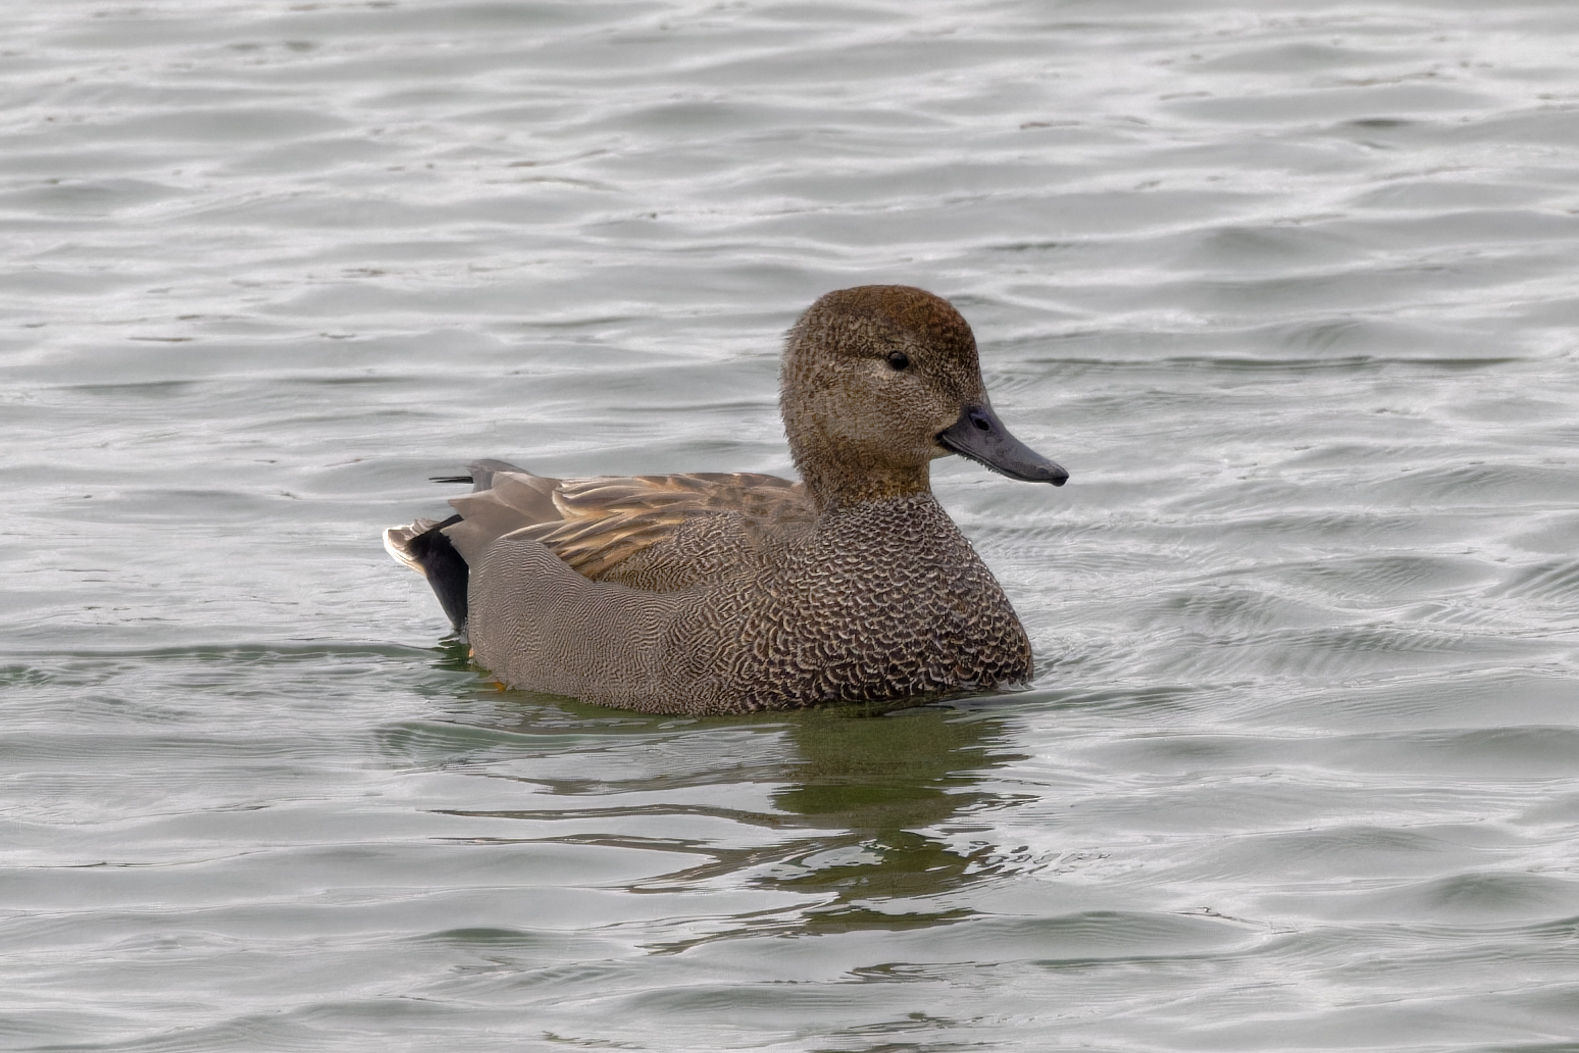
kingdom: Animalia
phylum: Chordata
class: Aves
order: Anseriformes
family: Anatidae
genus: Mareca
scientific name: Mareca strepera
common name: Gadwall
